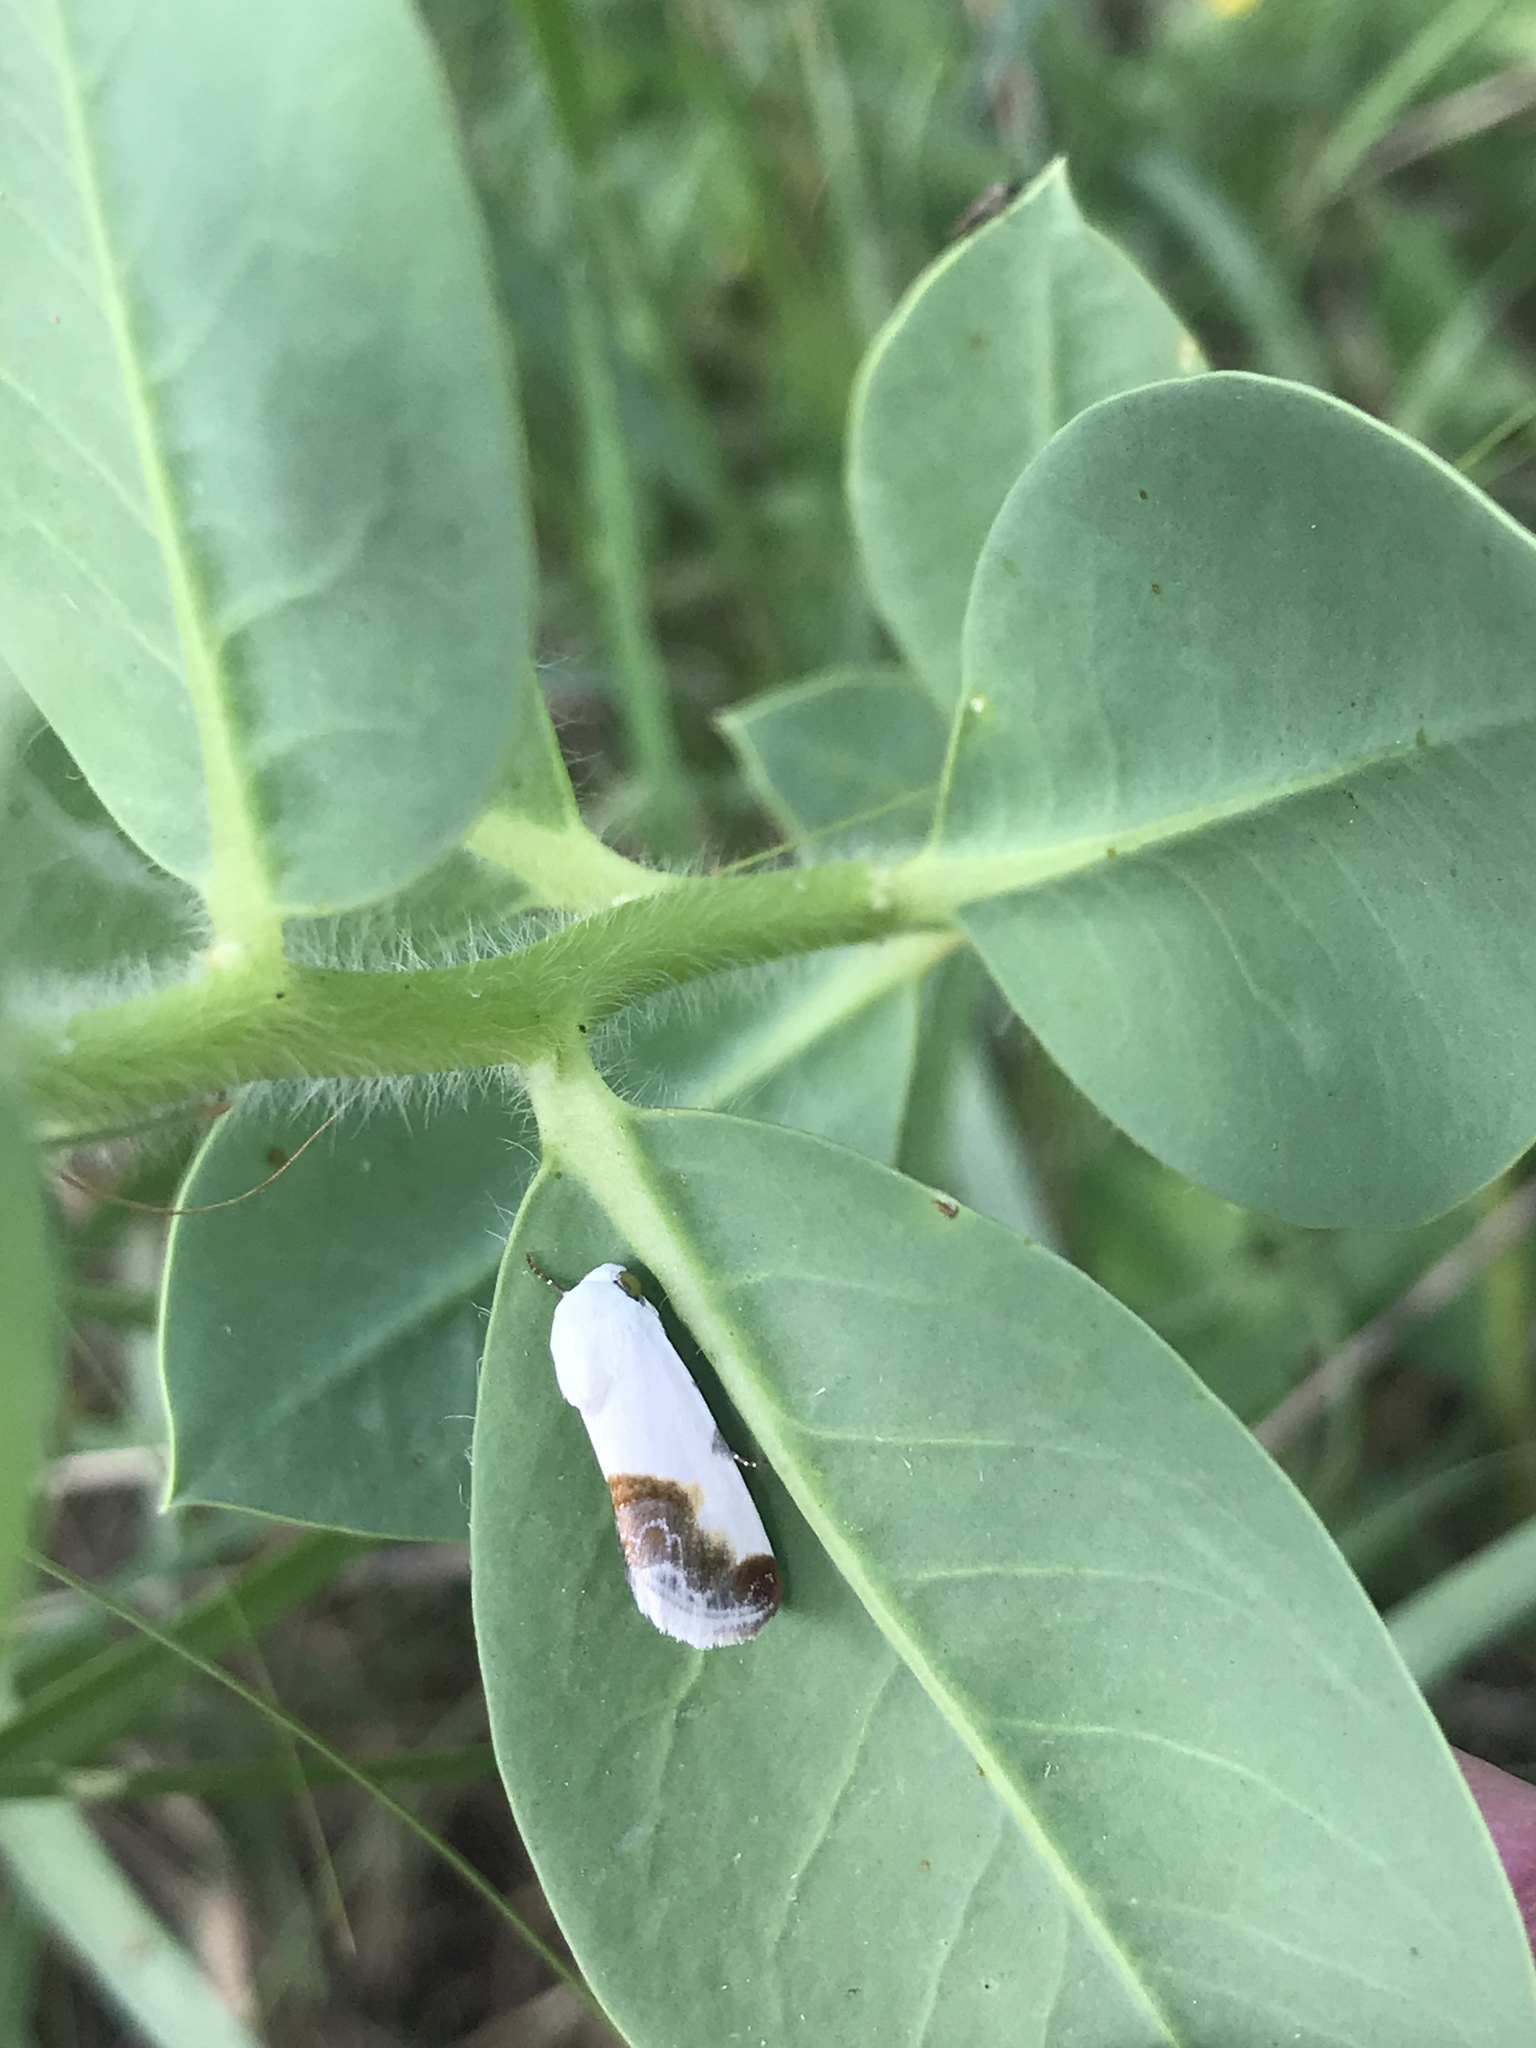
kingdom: Animalia
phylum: Arthropoda
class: Insecta
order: Lepidoptera
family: Noctuidae
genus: Acontia
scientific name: Acontia cretata
